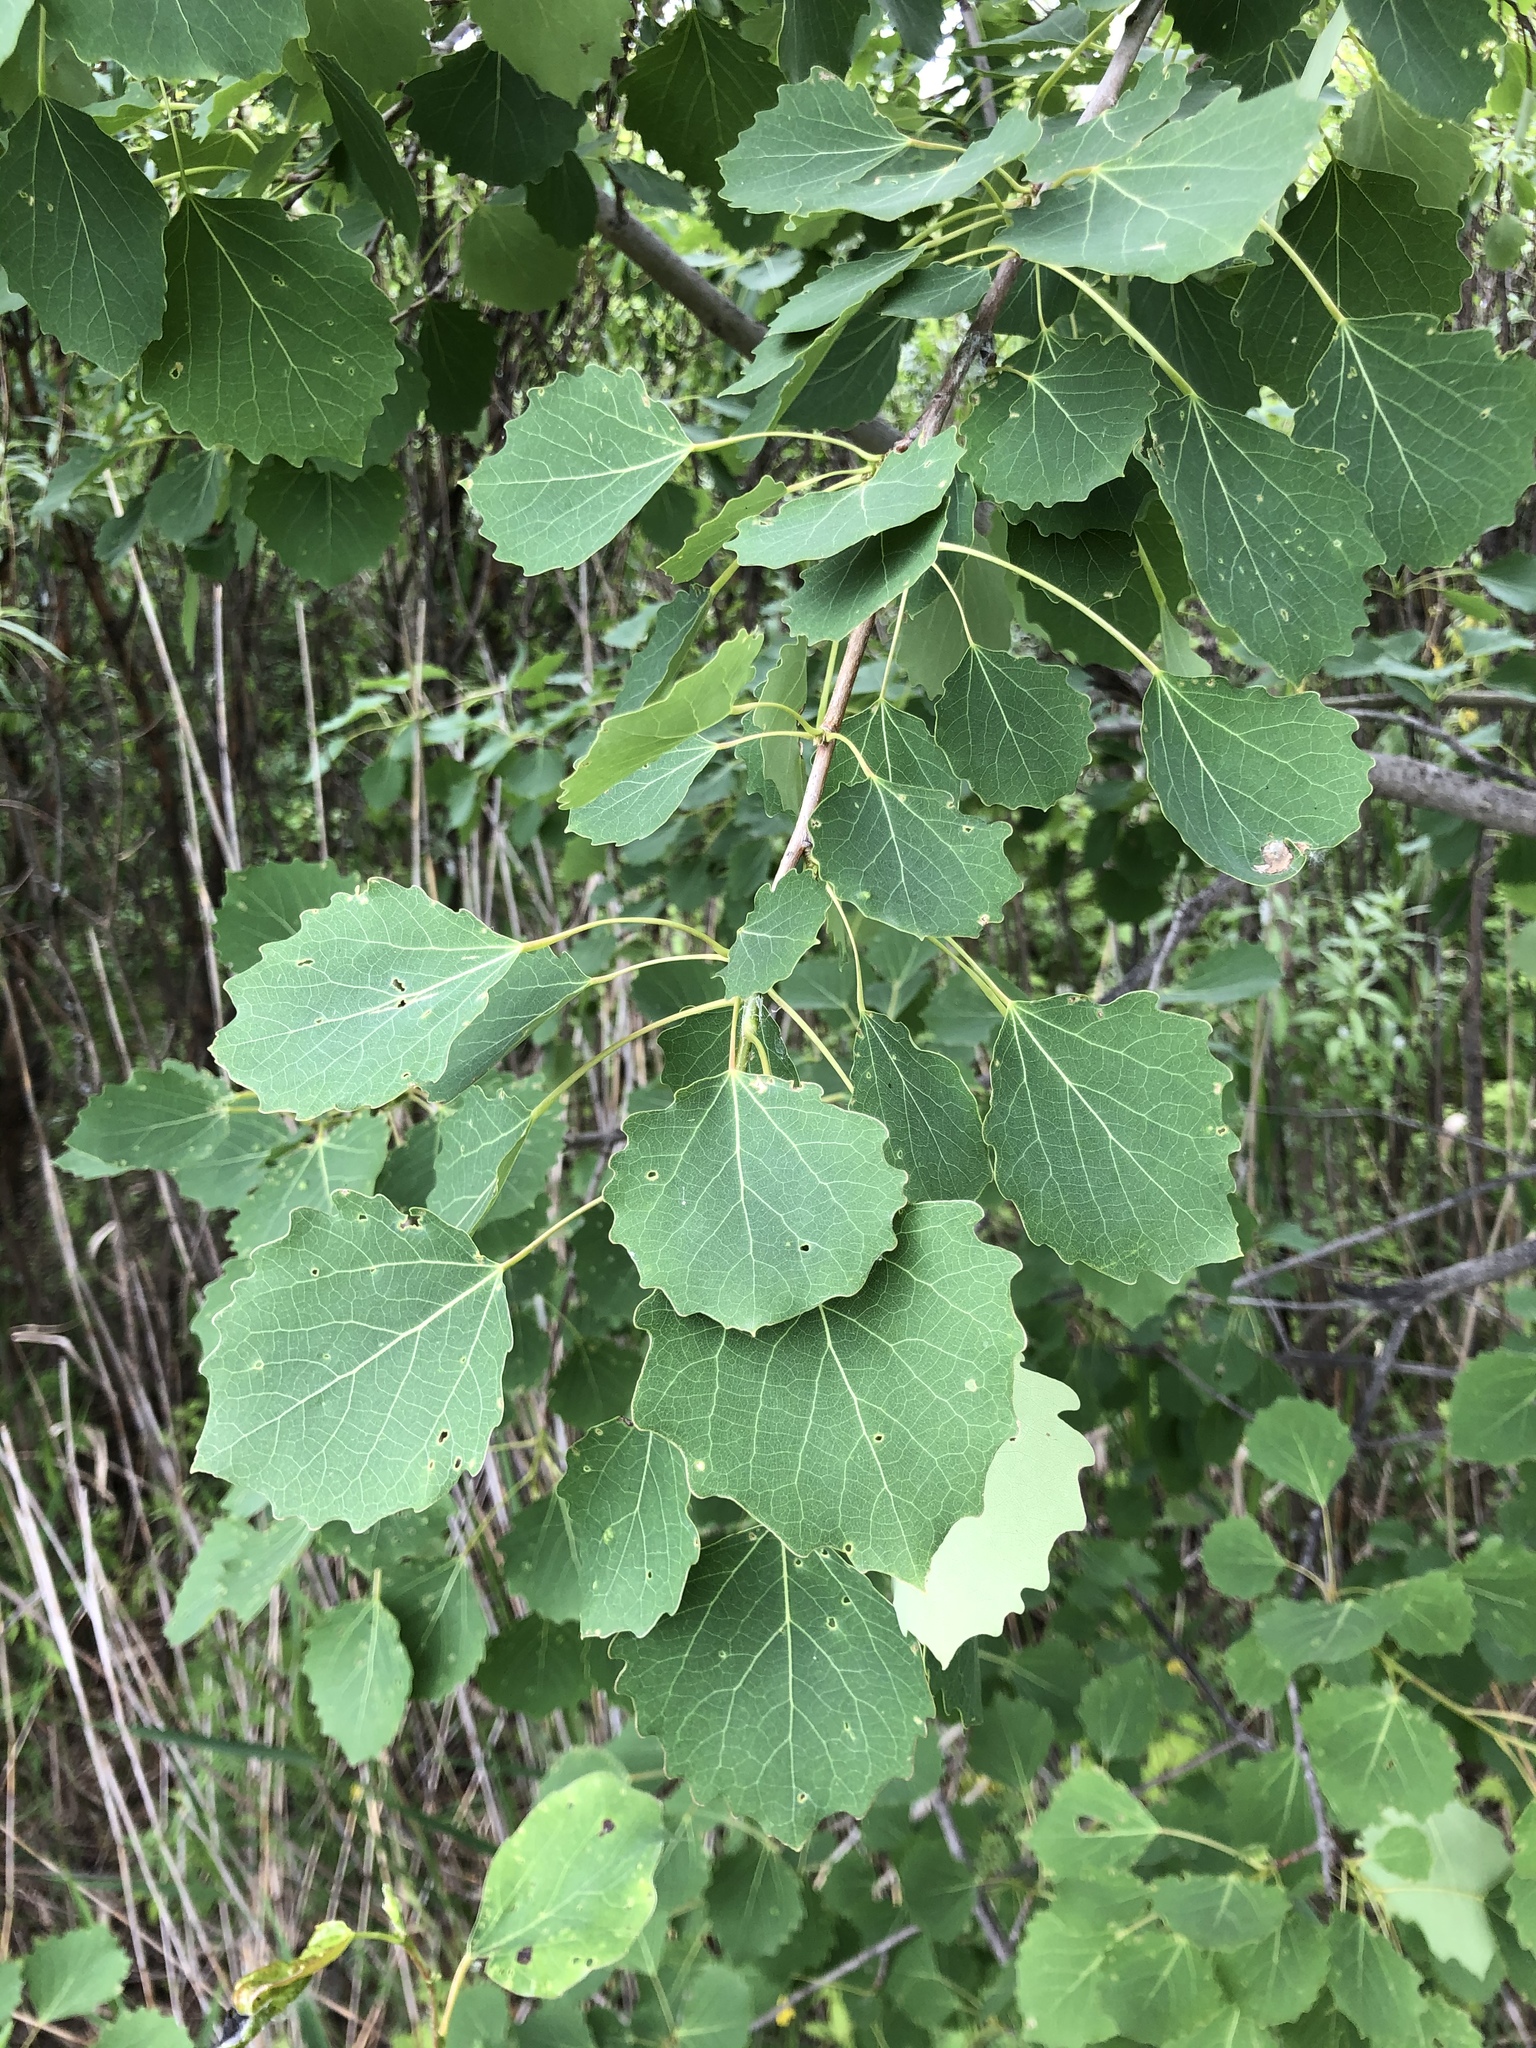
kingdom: Plantae
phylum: Tracheophyta
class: Magnoliopsida
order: Malpighiales
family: Salicaceae
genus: Populus
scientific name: Populus tremula
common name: European aspen
